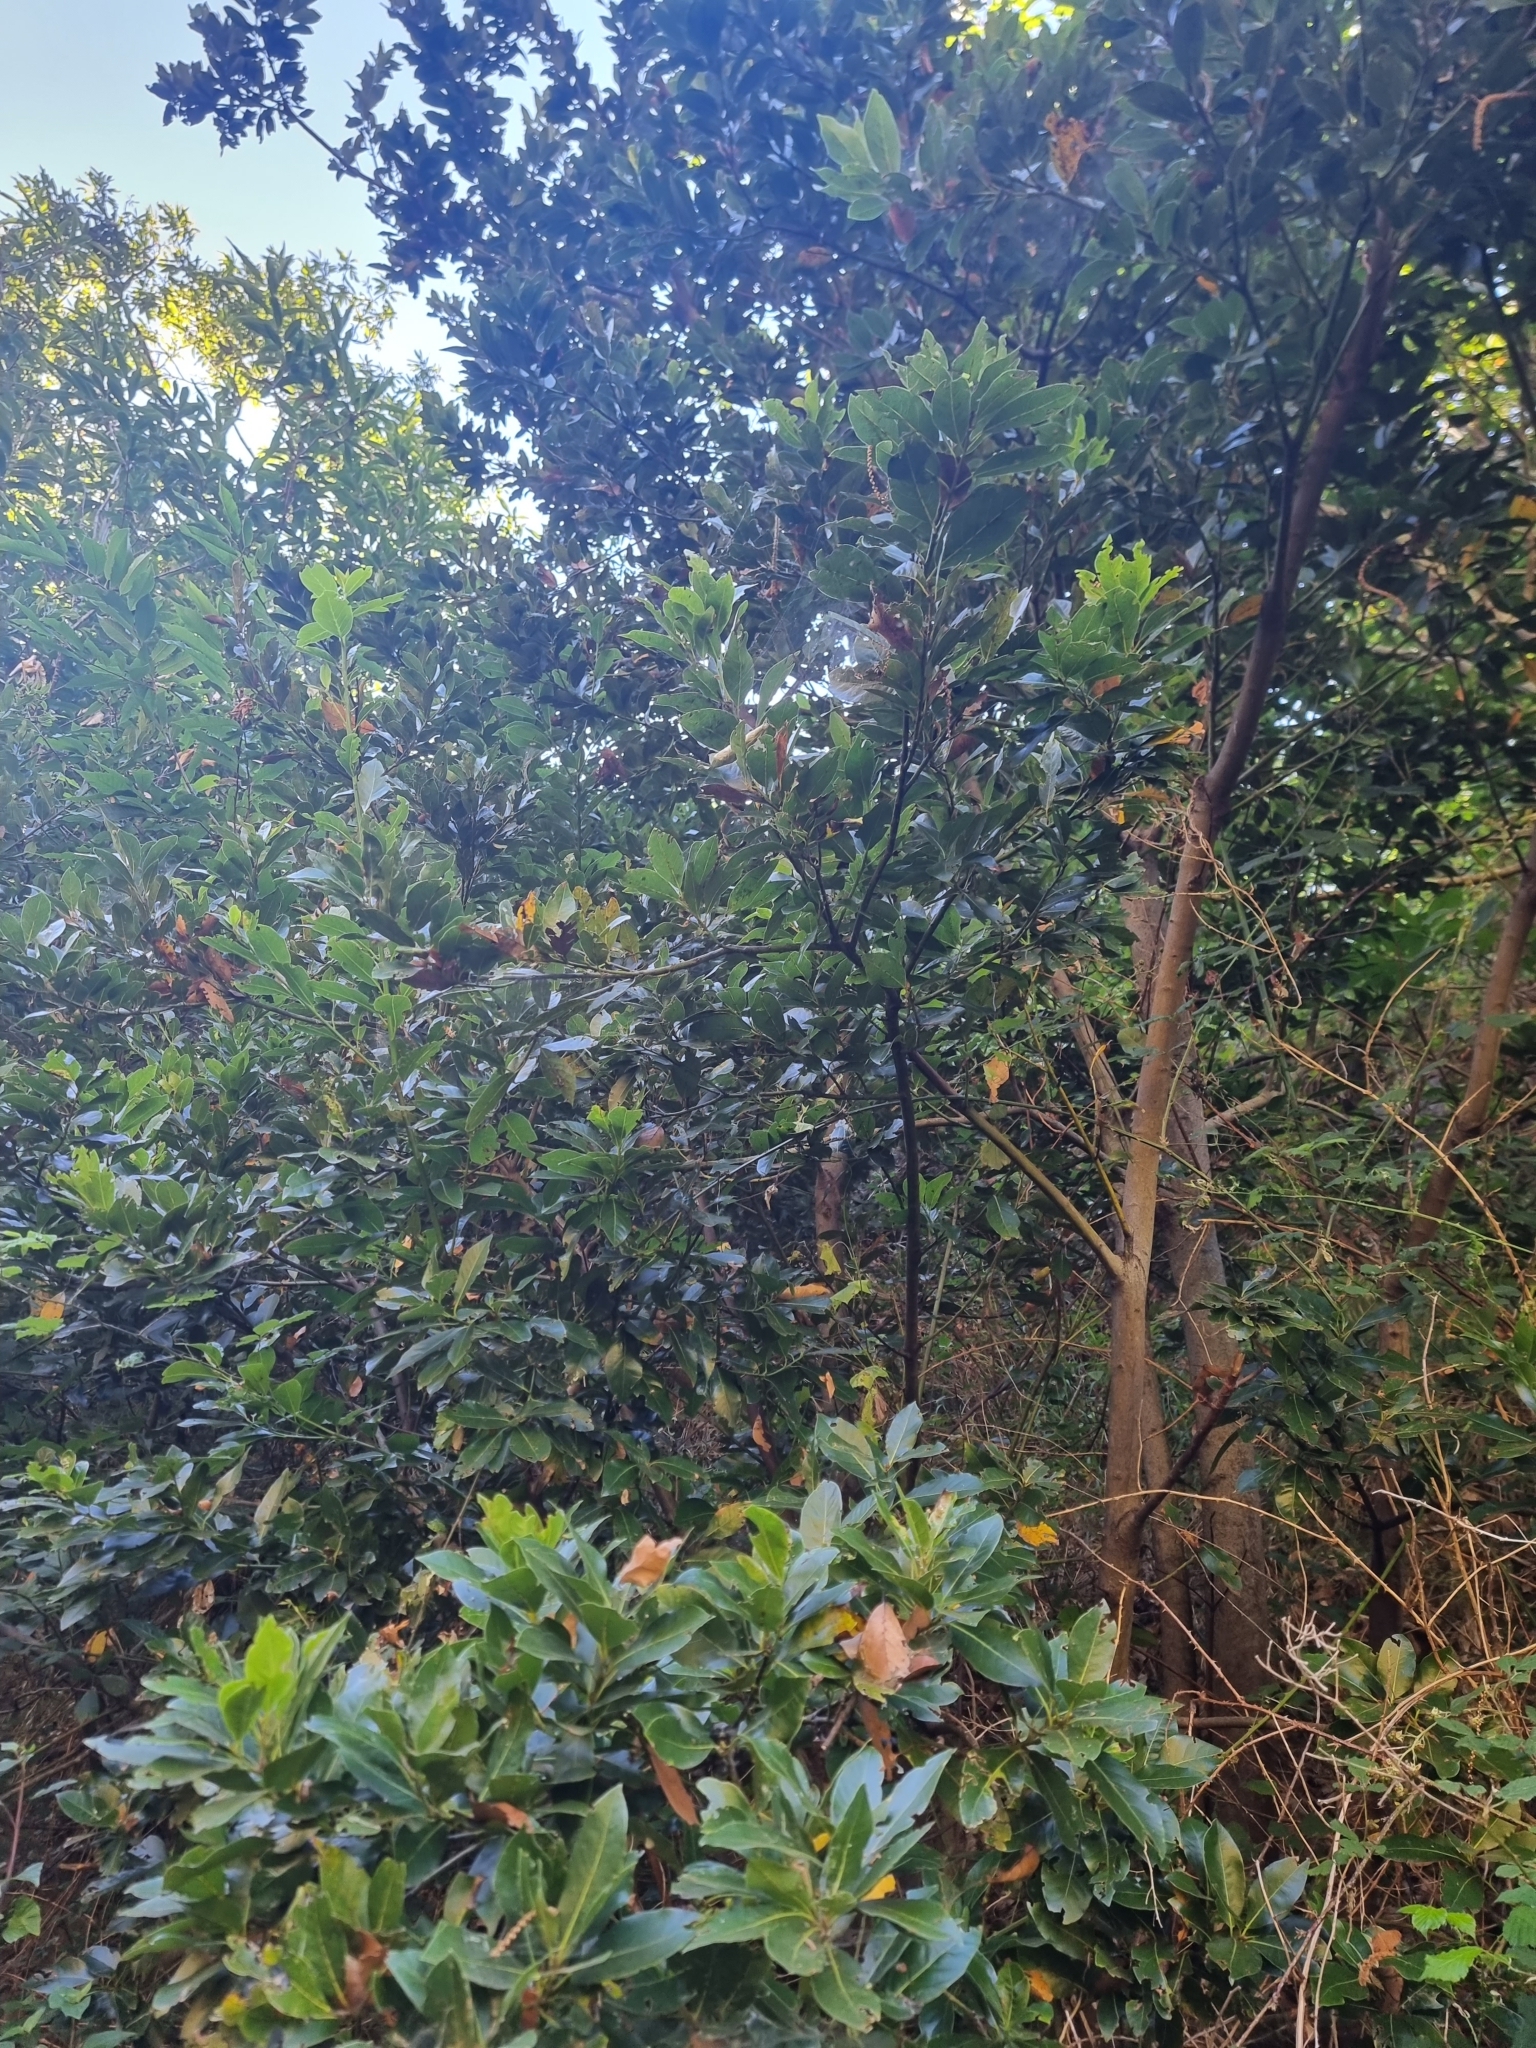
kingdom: Plantae
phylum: Tracheophyta
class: Magnoliopsida
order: Laurales
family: Lauraceae
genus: Laurus
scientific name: Laurus novocanariensis
